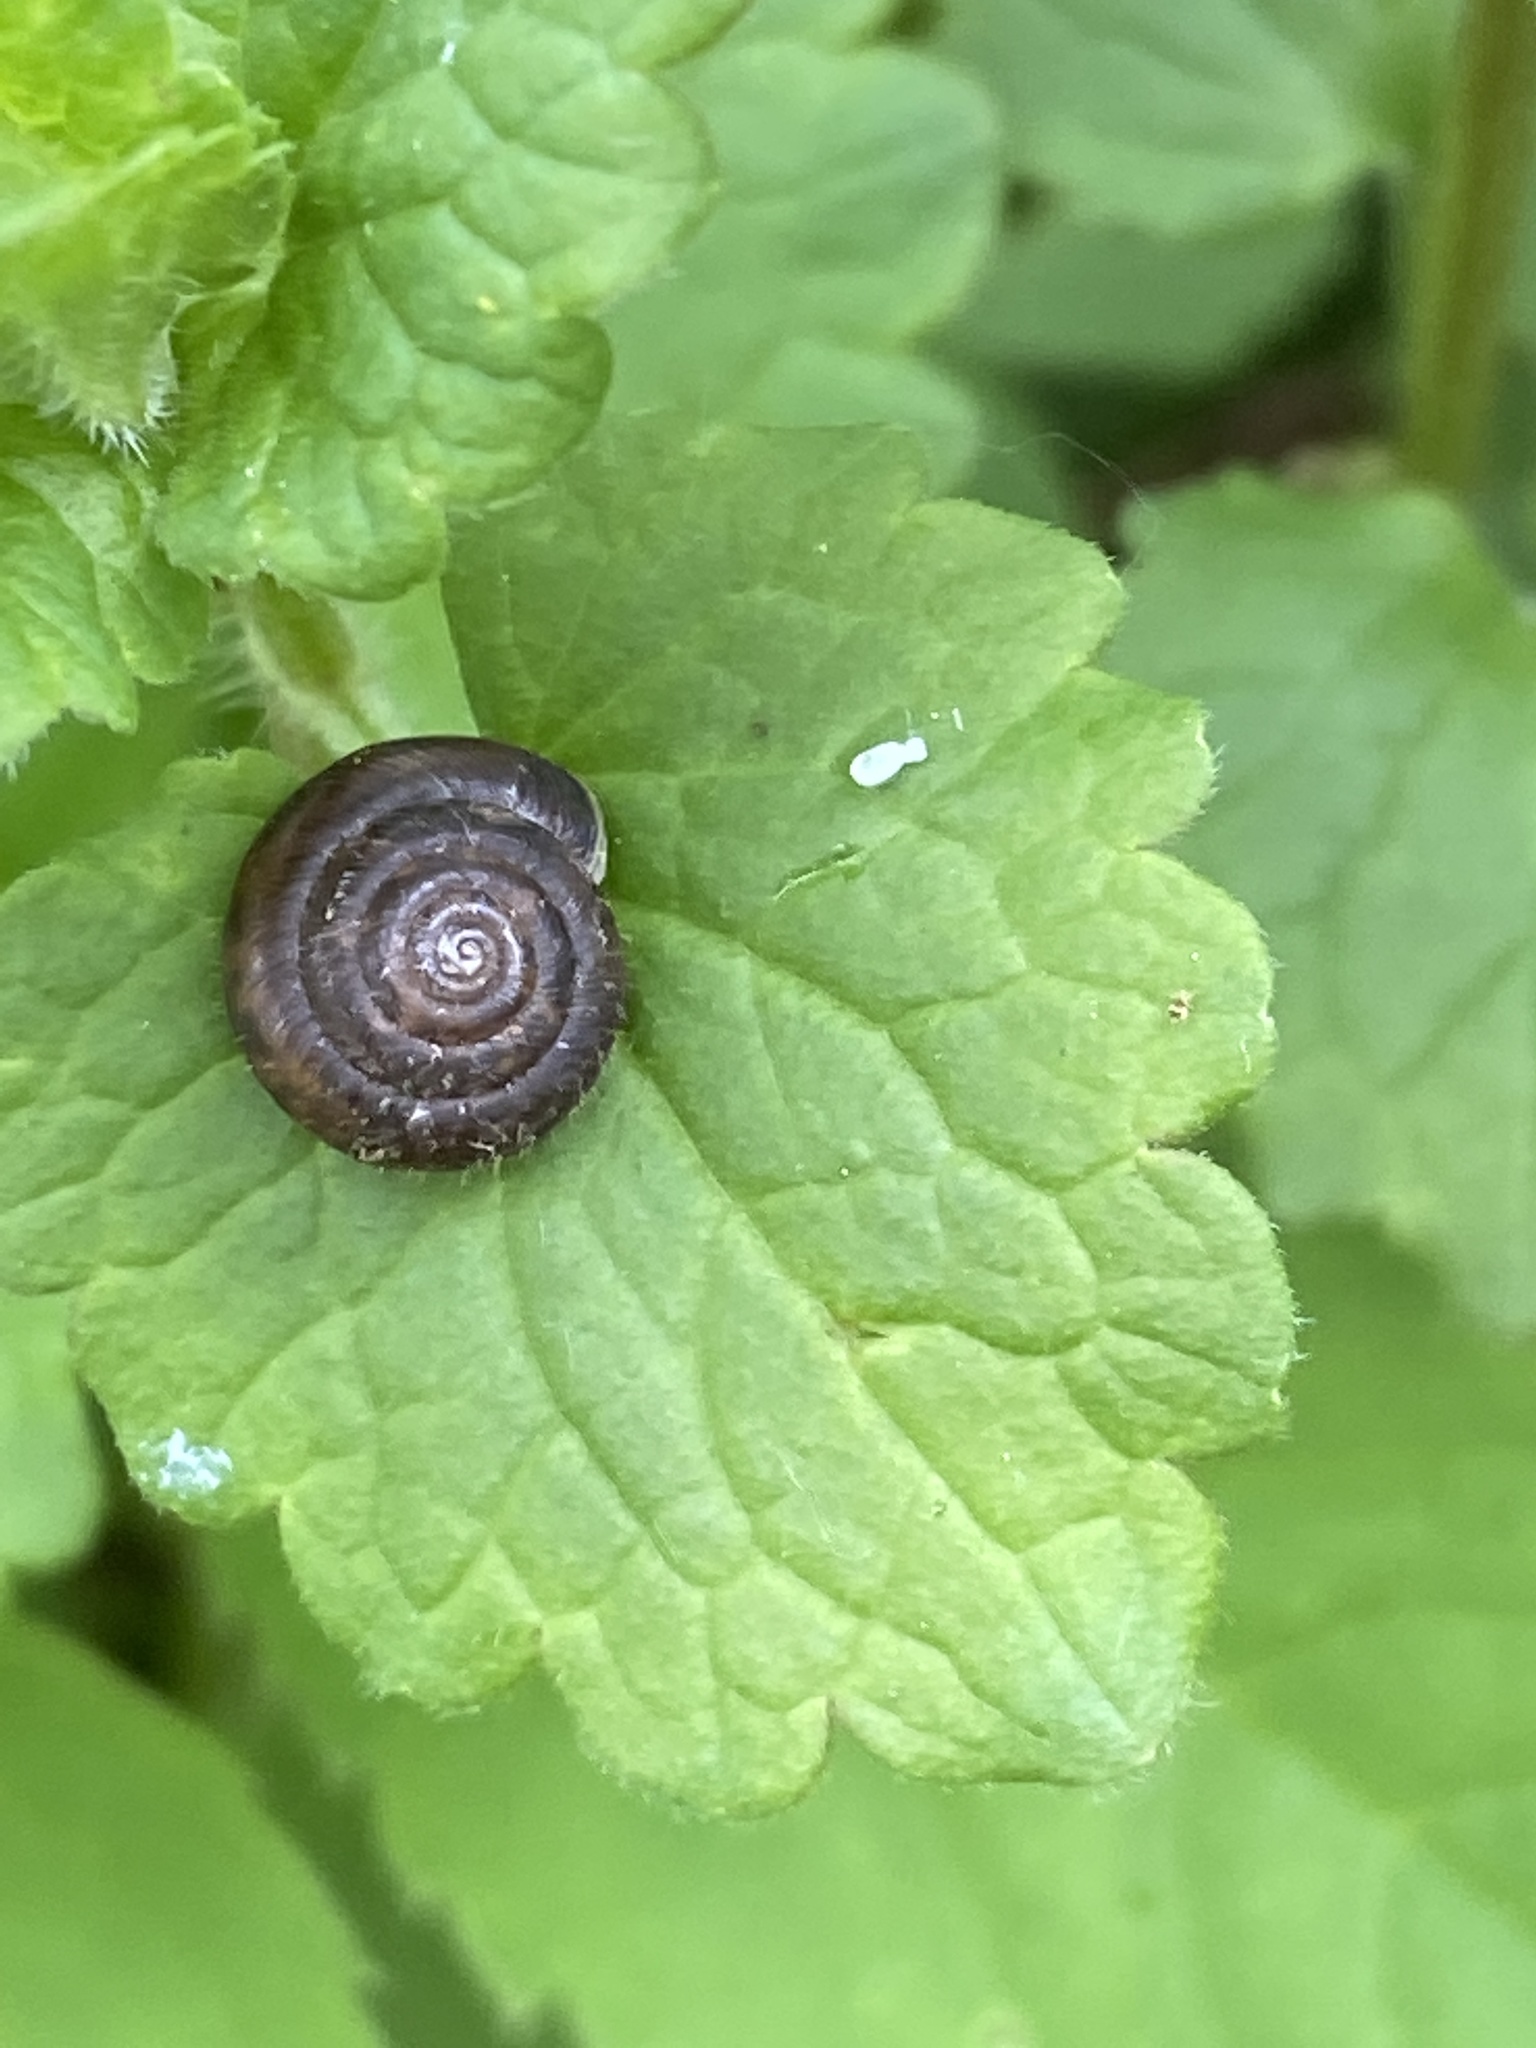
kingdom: Animalia
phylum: Mollusca
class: Gastropoda
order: Stylommatophora
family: Hygromiidae
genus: Trochulus
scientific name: Trochulus hispidus
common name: Hairy snail
